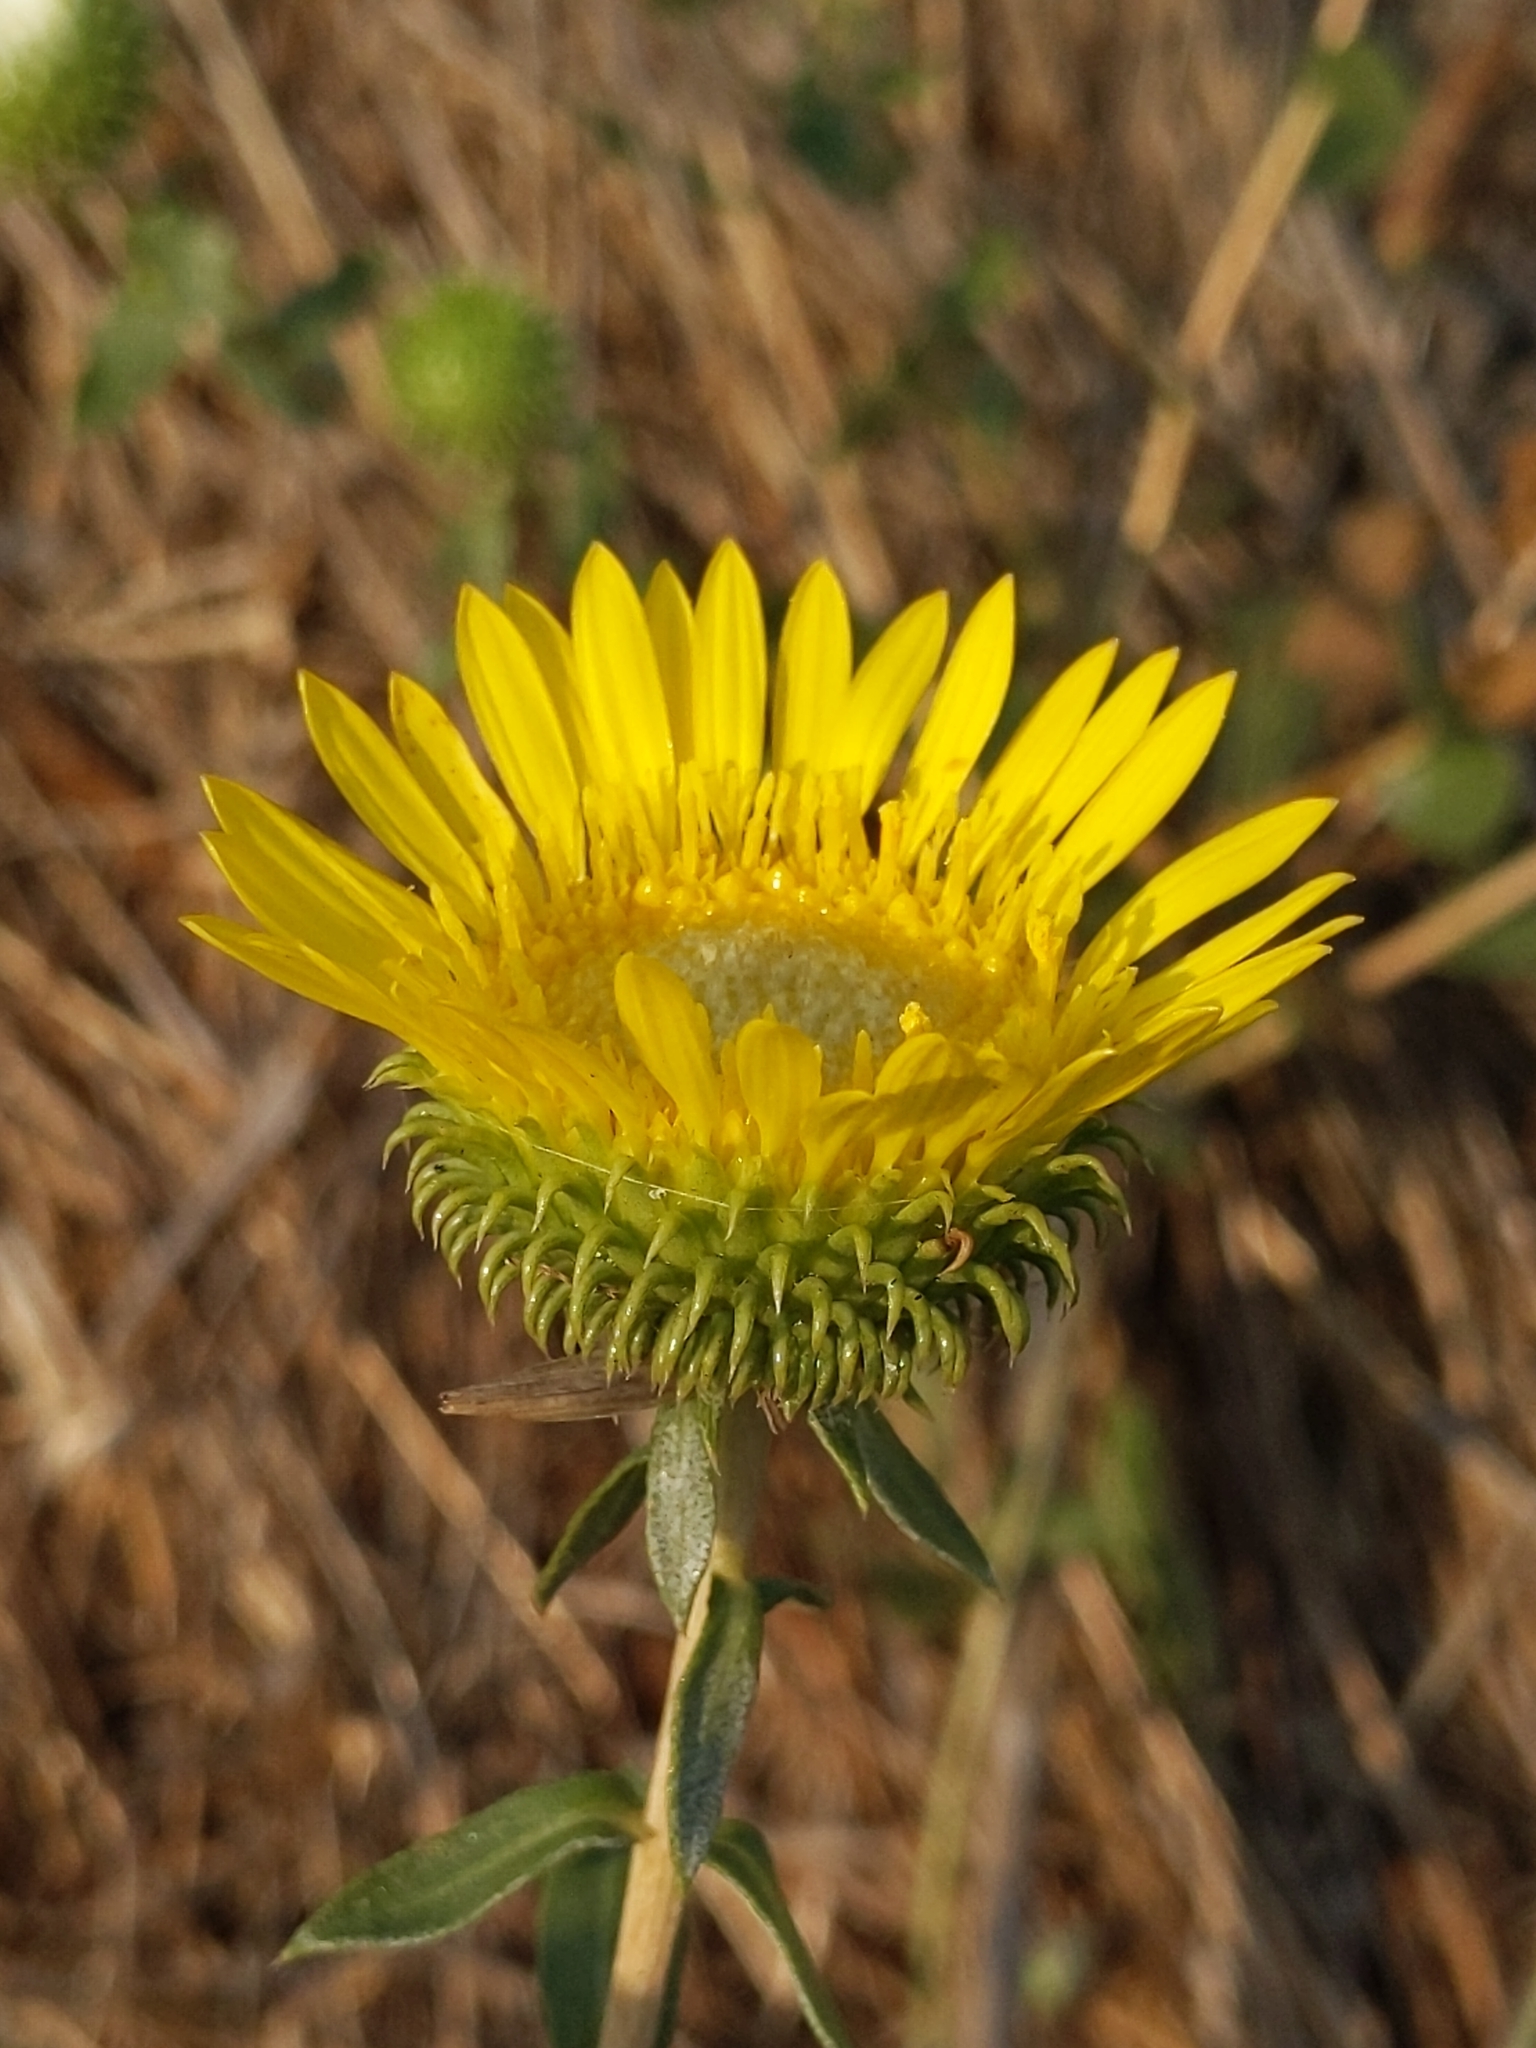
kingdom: Plantae
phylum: Tracheophyta
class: Magnoliopsida
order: Asterales
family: Asteraceae
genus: Grindelia
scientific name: Grindelia hirsutula
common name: Hairy gumweed
